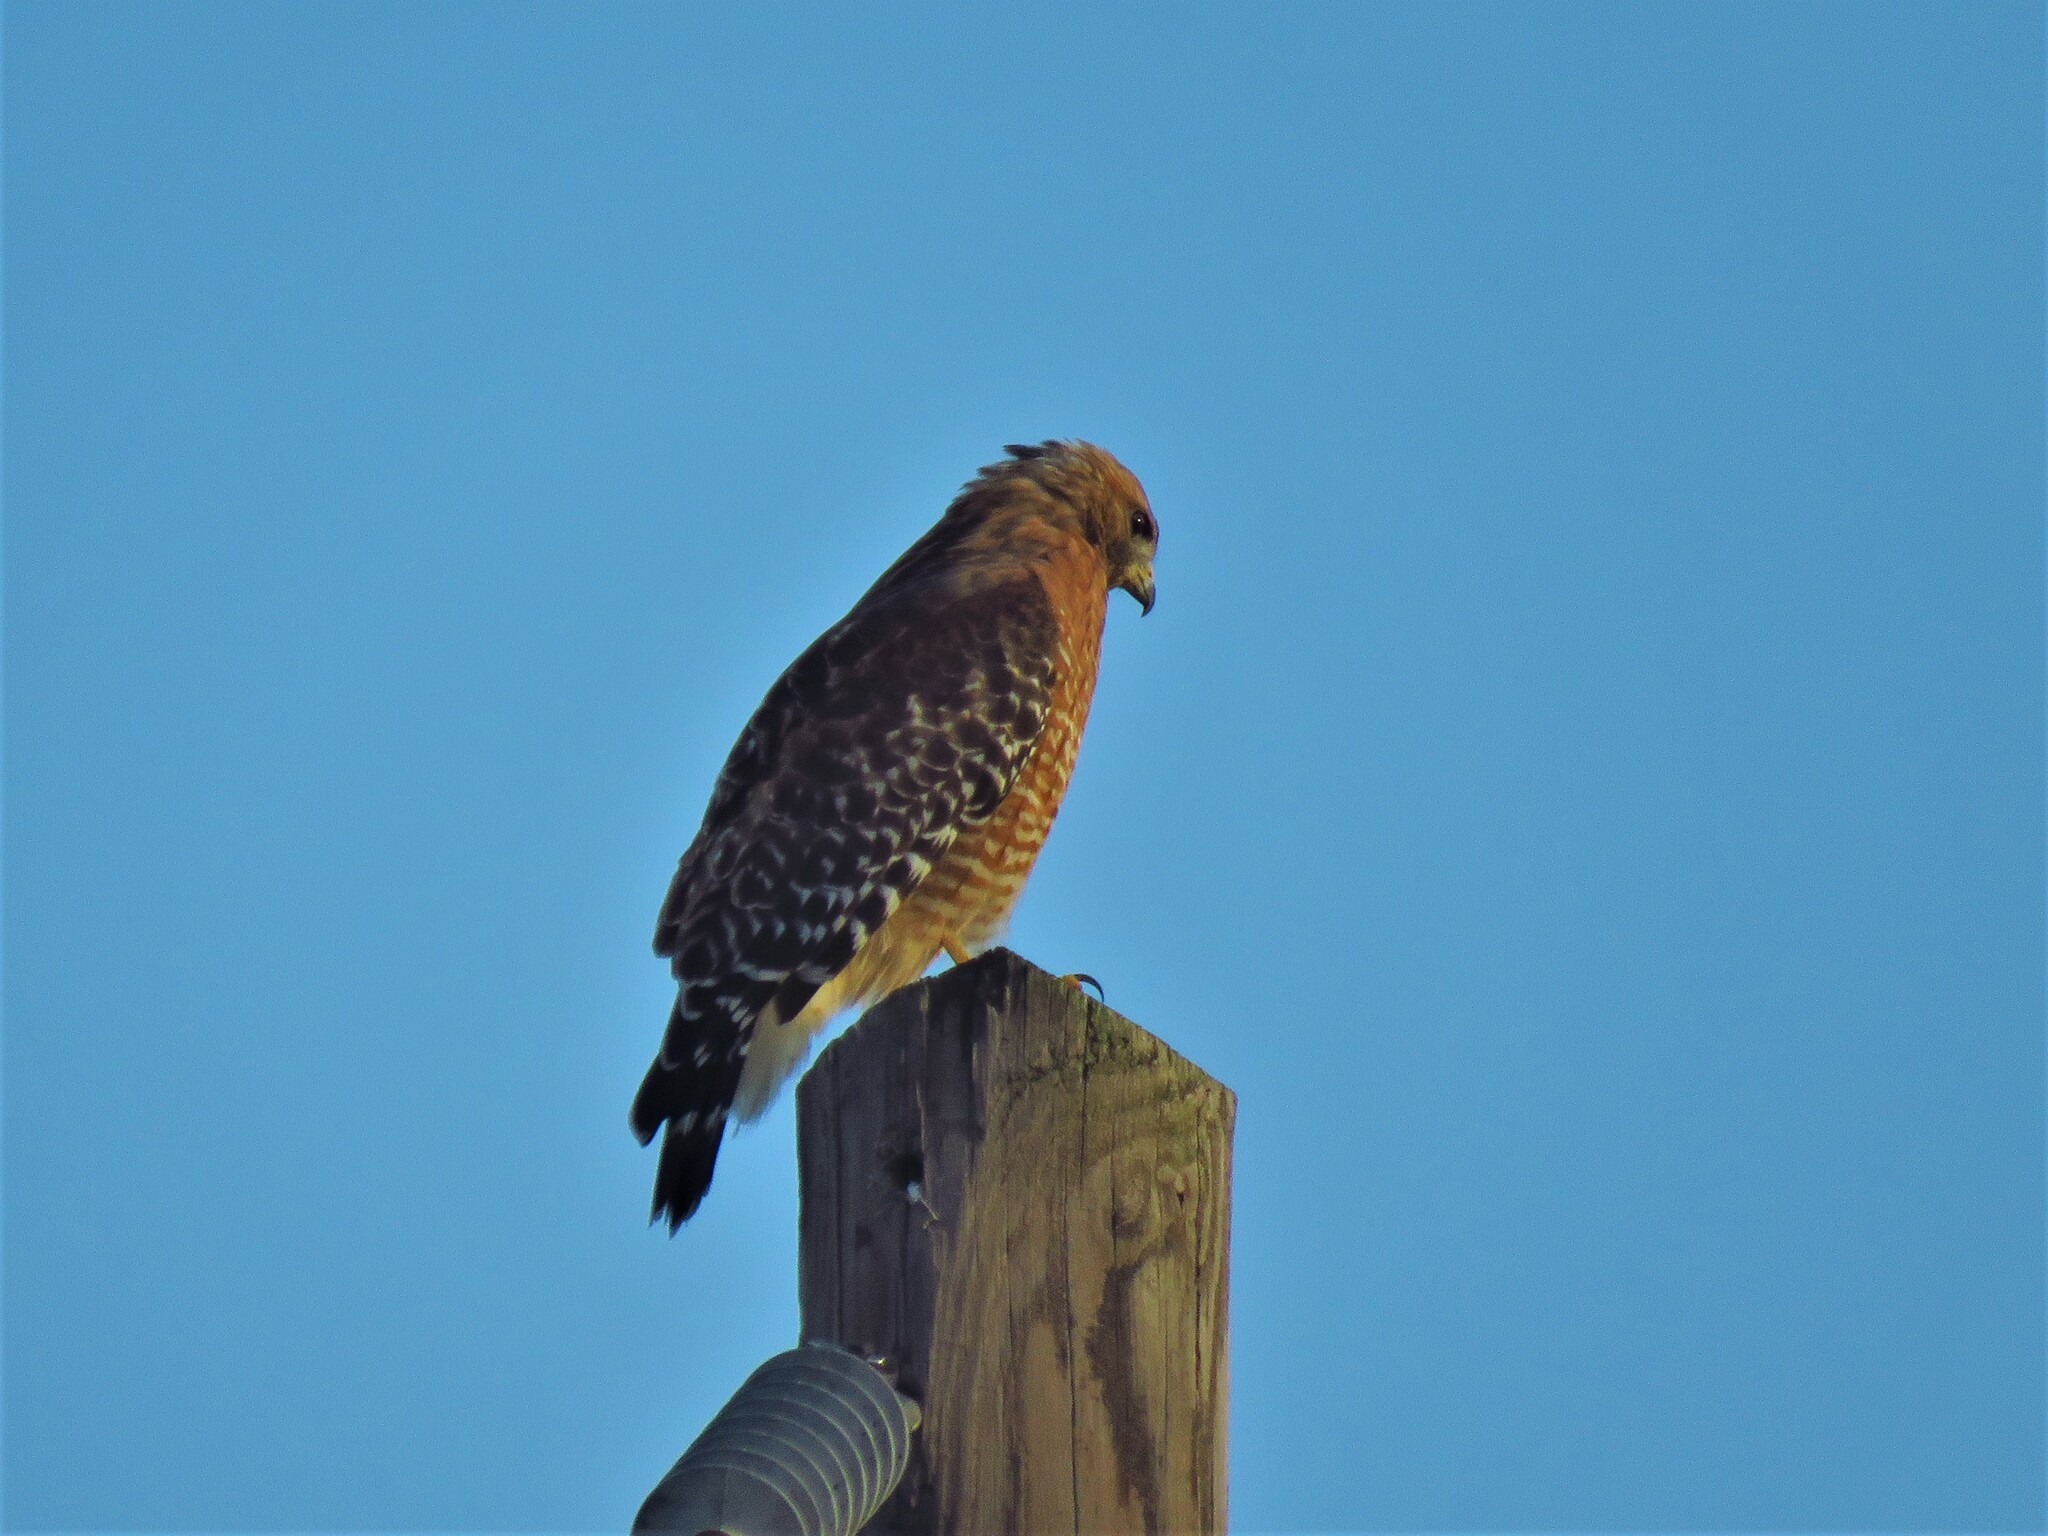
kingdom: Animalia
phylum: Chordata
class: Aves
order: Accipitriformes
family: Accipitridae
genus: Buteo
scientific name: Buteo lineatus
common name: Red-shouldered hawk
